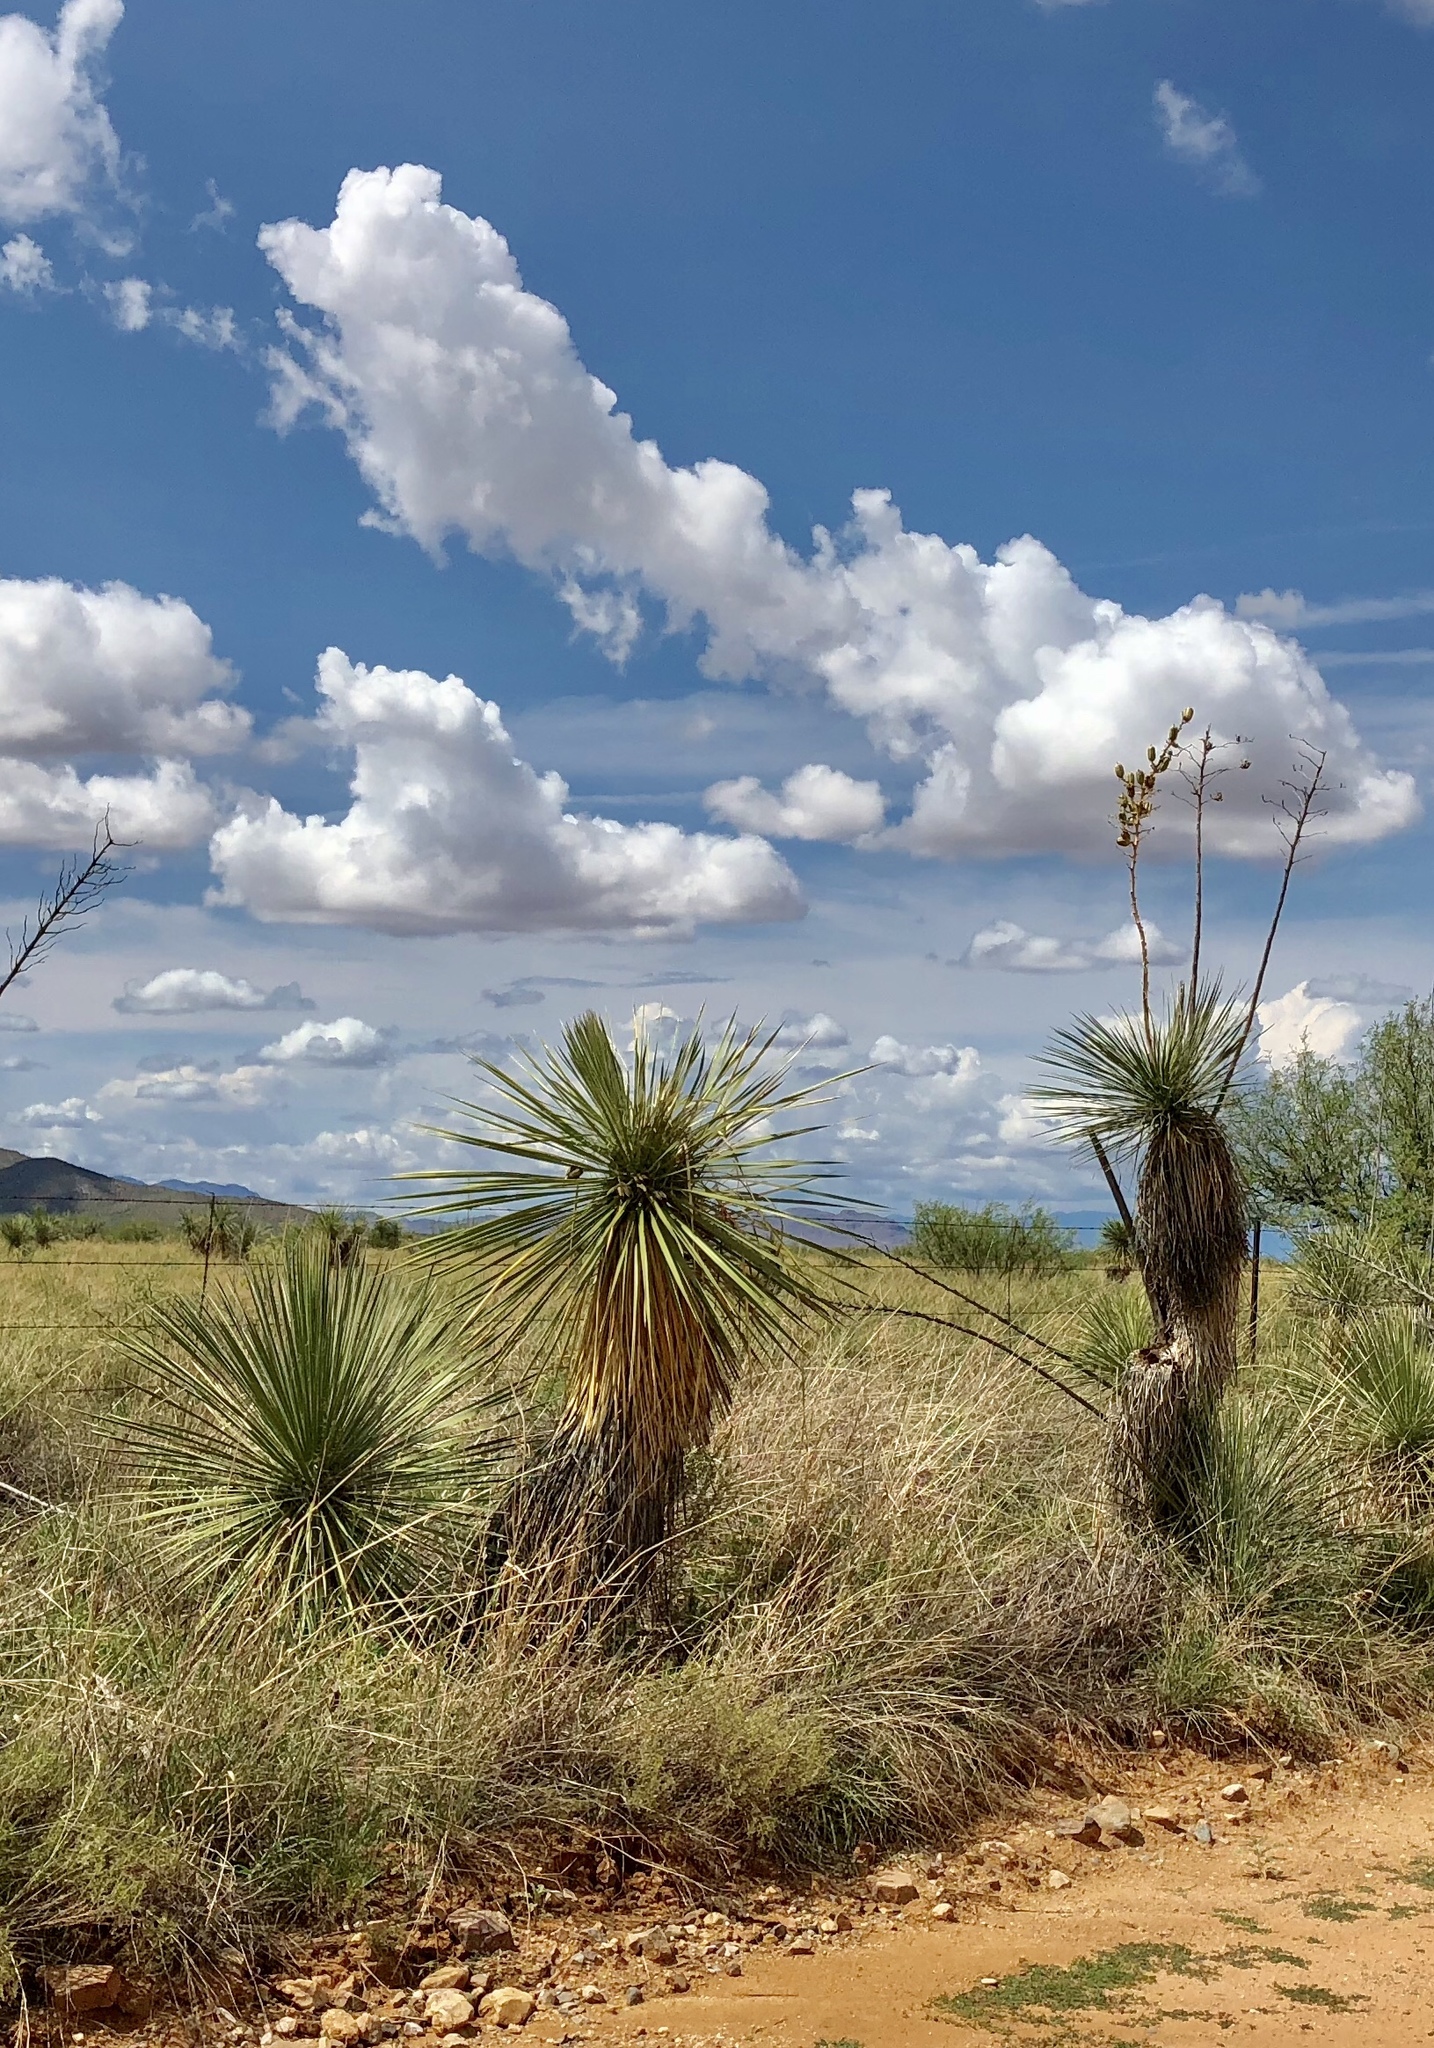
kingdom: Plantae
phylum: Tracheophyta
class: Liliopsida
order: Asparagales
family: Asparagaceae
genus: Yucca
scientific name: Yucca elata
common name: Palmella
